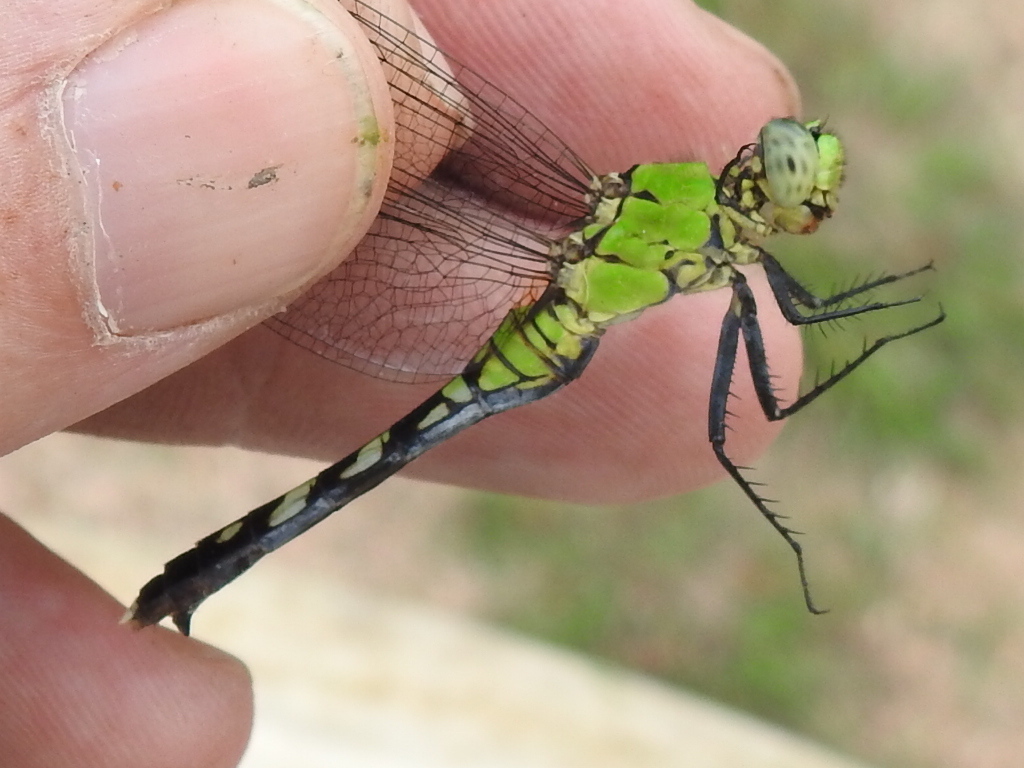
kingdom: Animalia
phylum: Arthropoda
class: Insecta
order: Odonata
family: Libellulidae
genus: Erythemis
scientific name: Erythemis simplicicollis
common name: Eastern pondhawk
